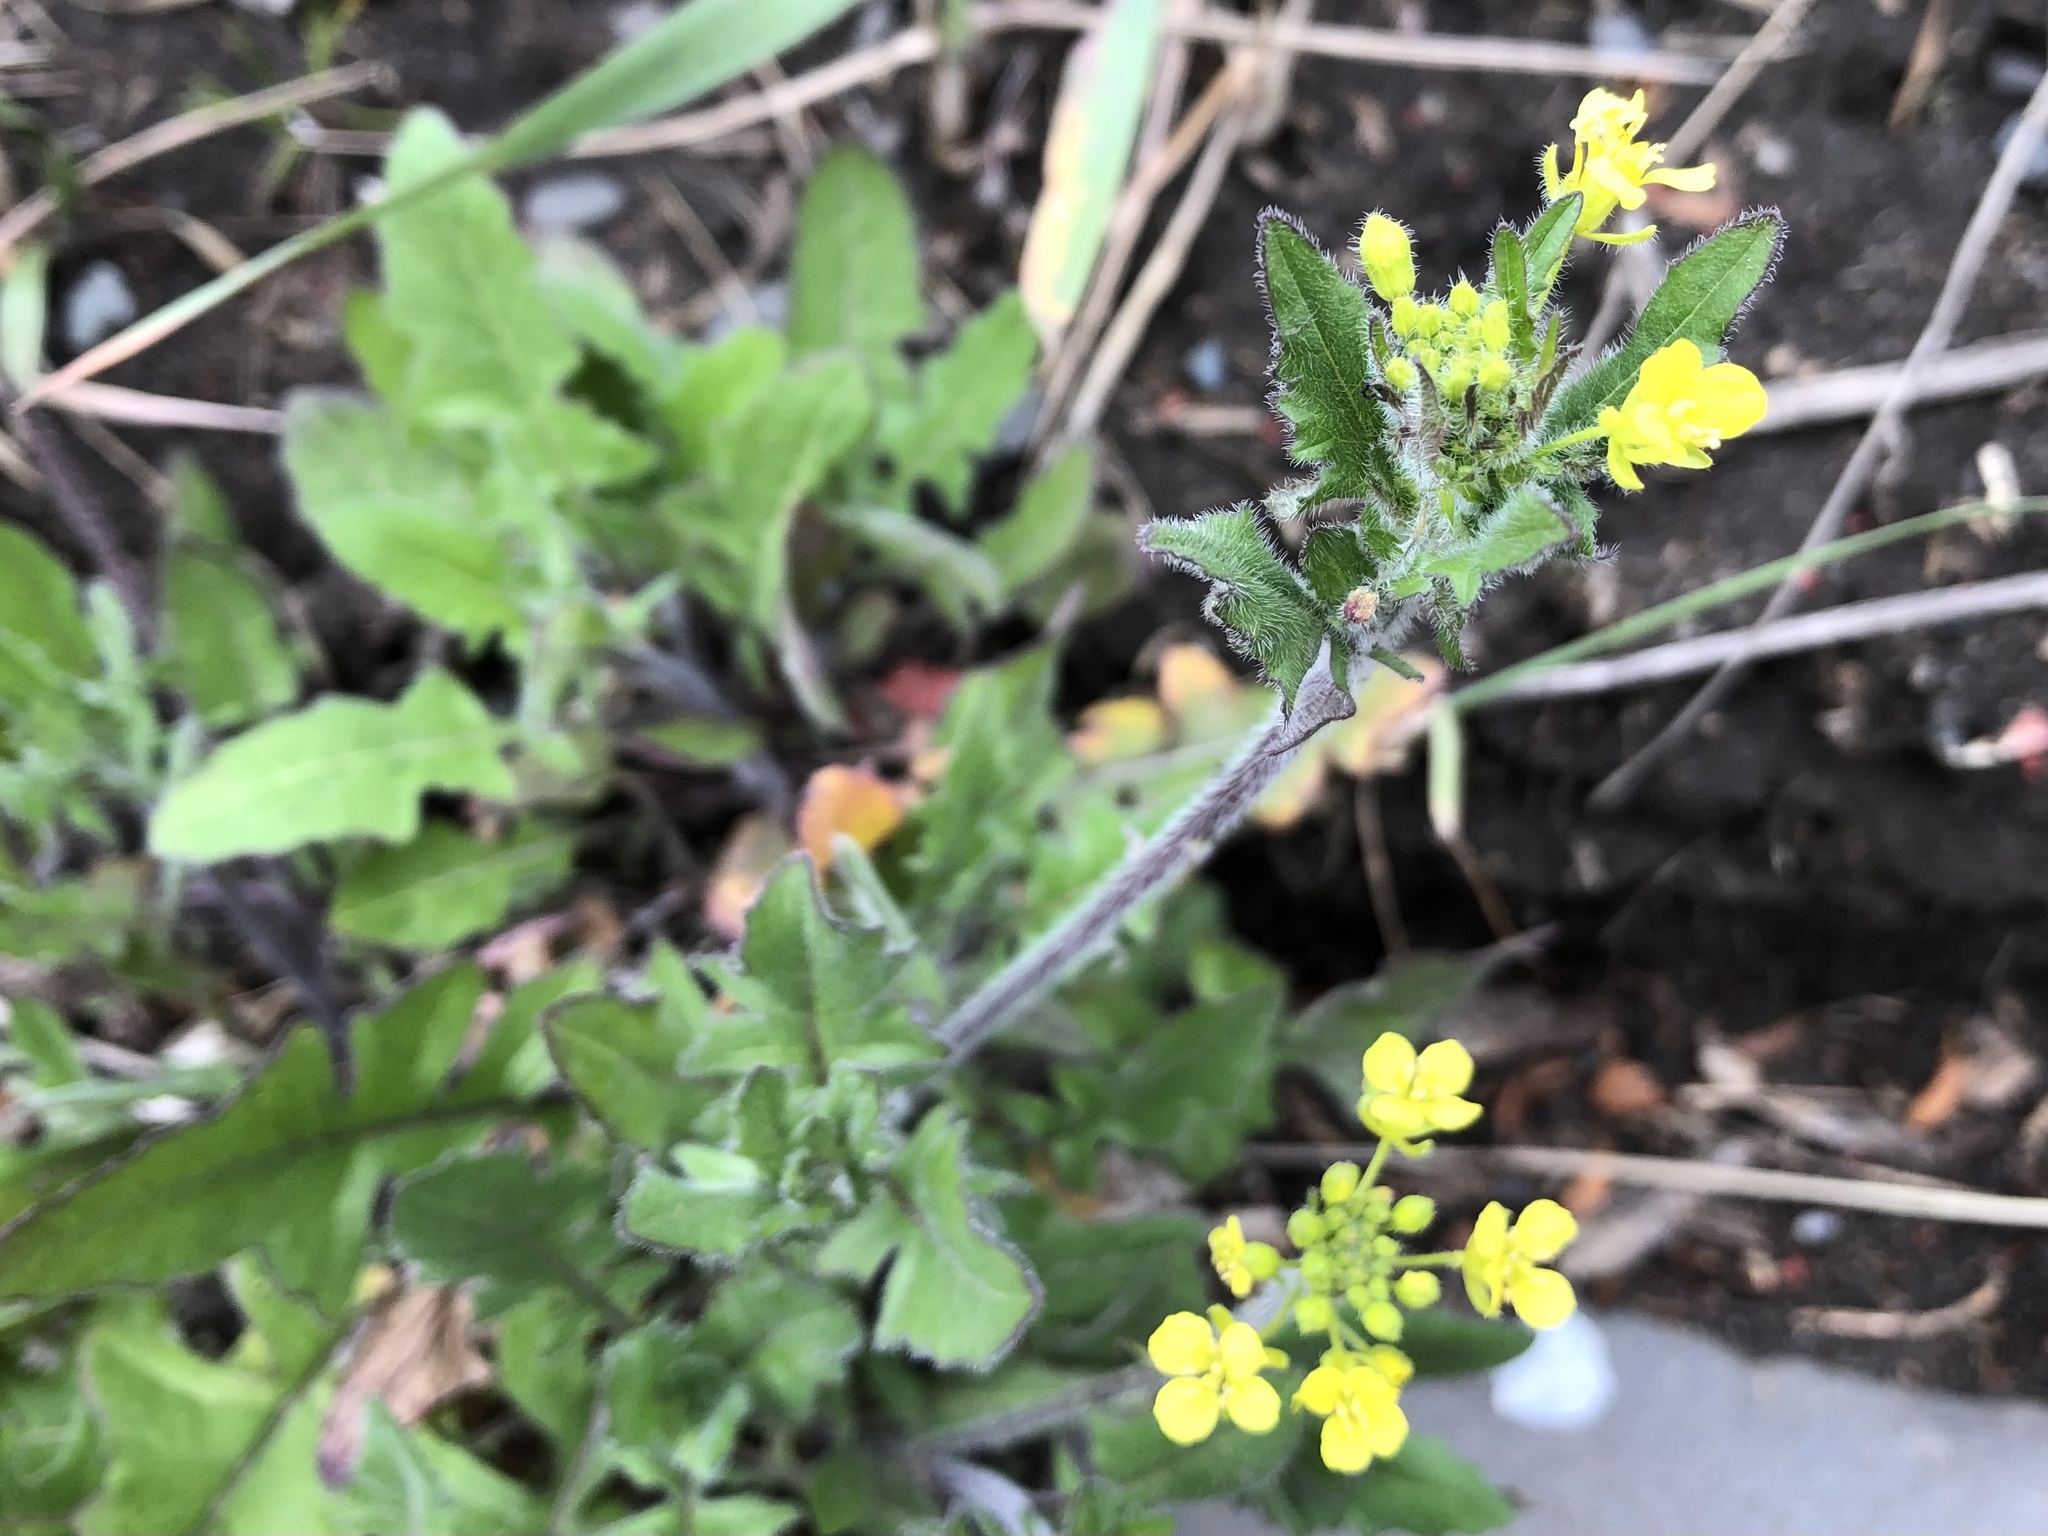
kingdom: Plantae
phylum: Tracheophyta
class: Magnoliopsida
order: Brassicales
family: Brassicaceae
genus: Sisymbrium
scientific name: Sisymbrium loeselii
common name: False london-rocket
